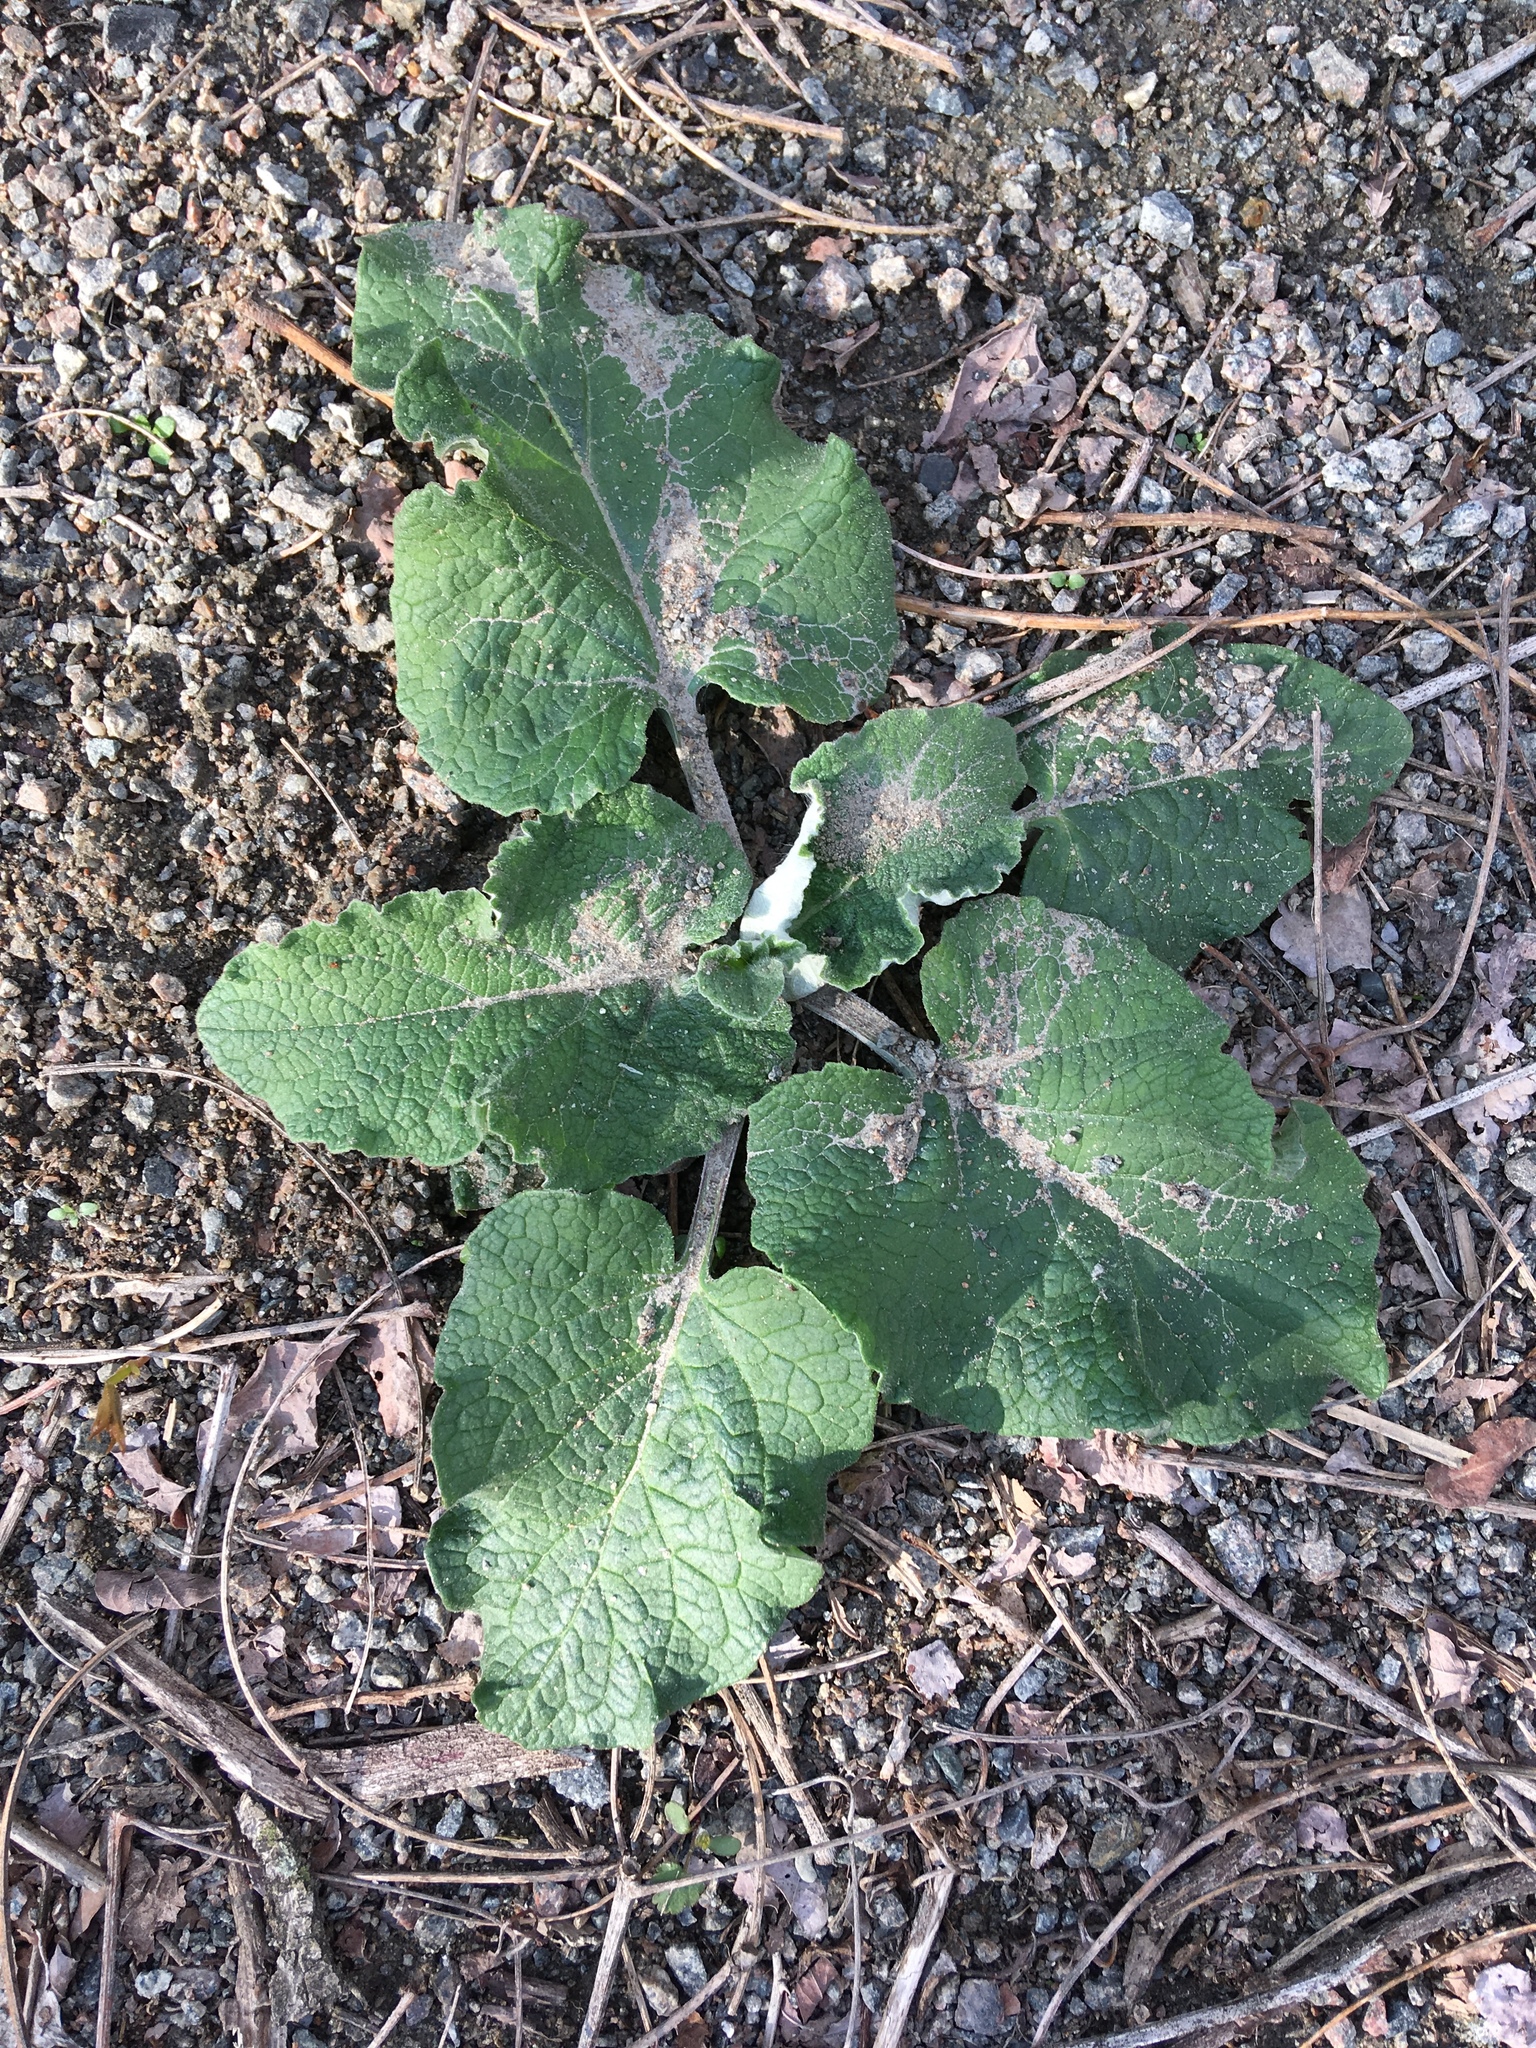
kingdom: Plantae
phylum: Tracheophyta
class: Magnoliopsida
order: Asterales
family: Asteraceae
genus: Arctium
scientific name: Arctium
